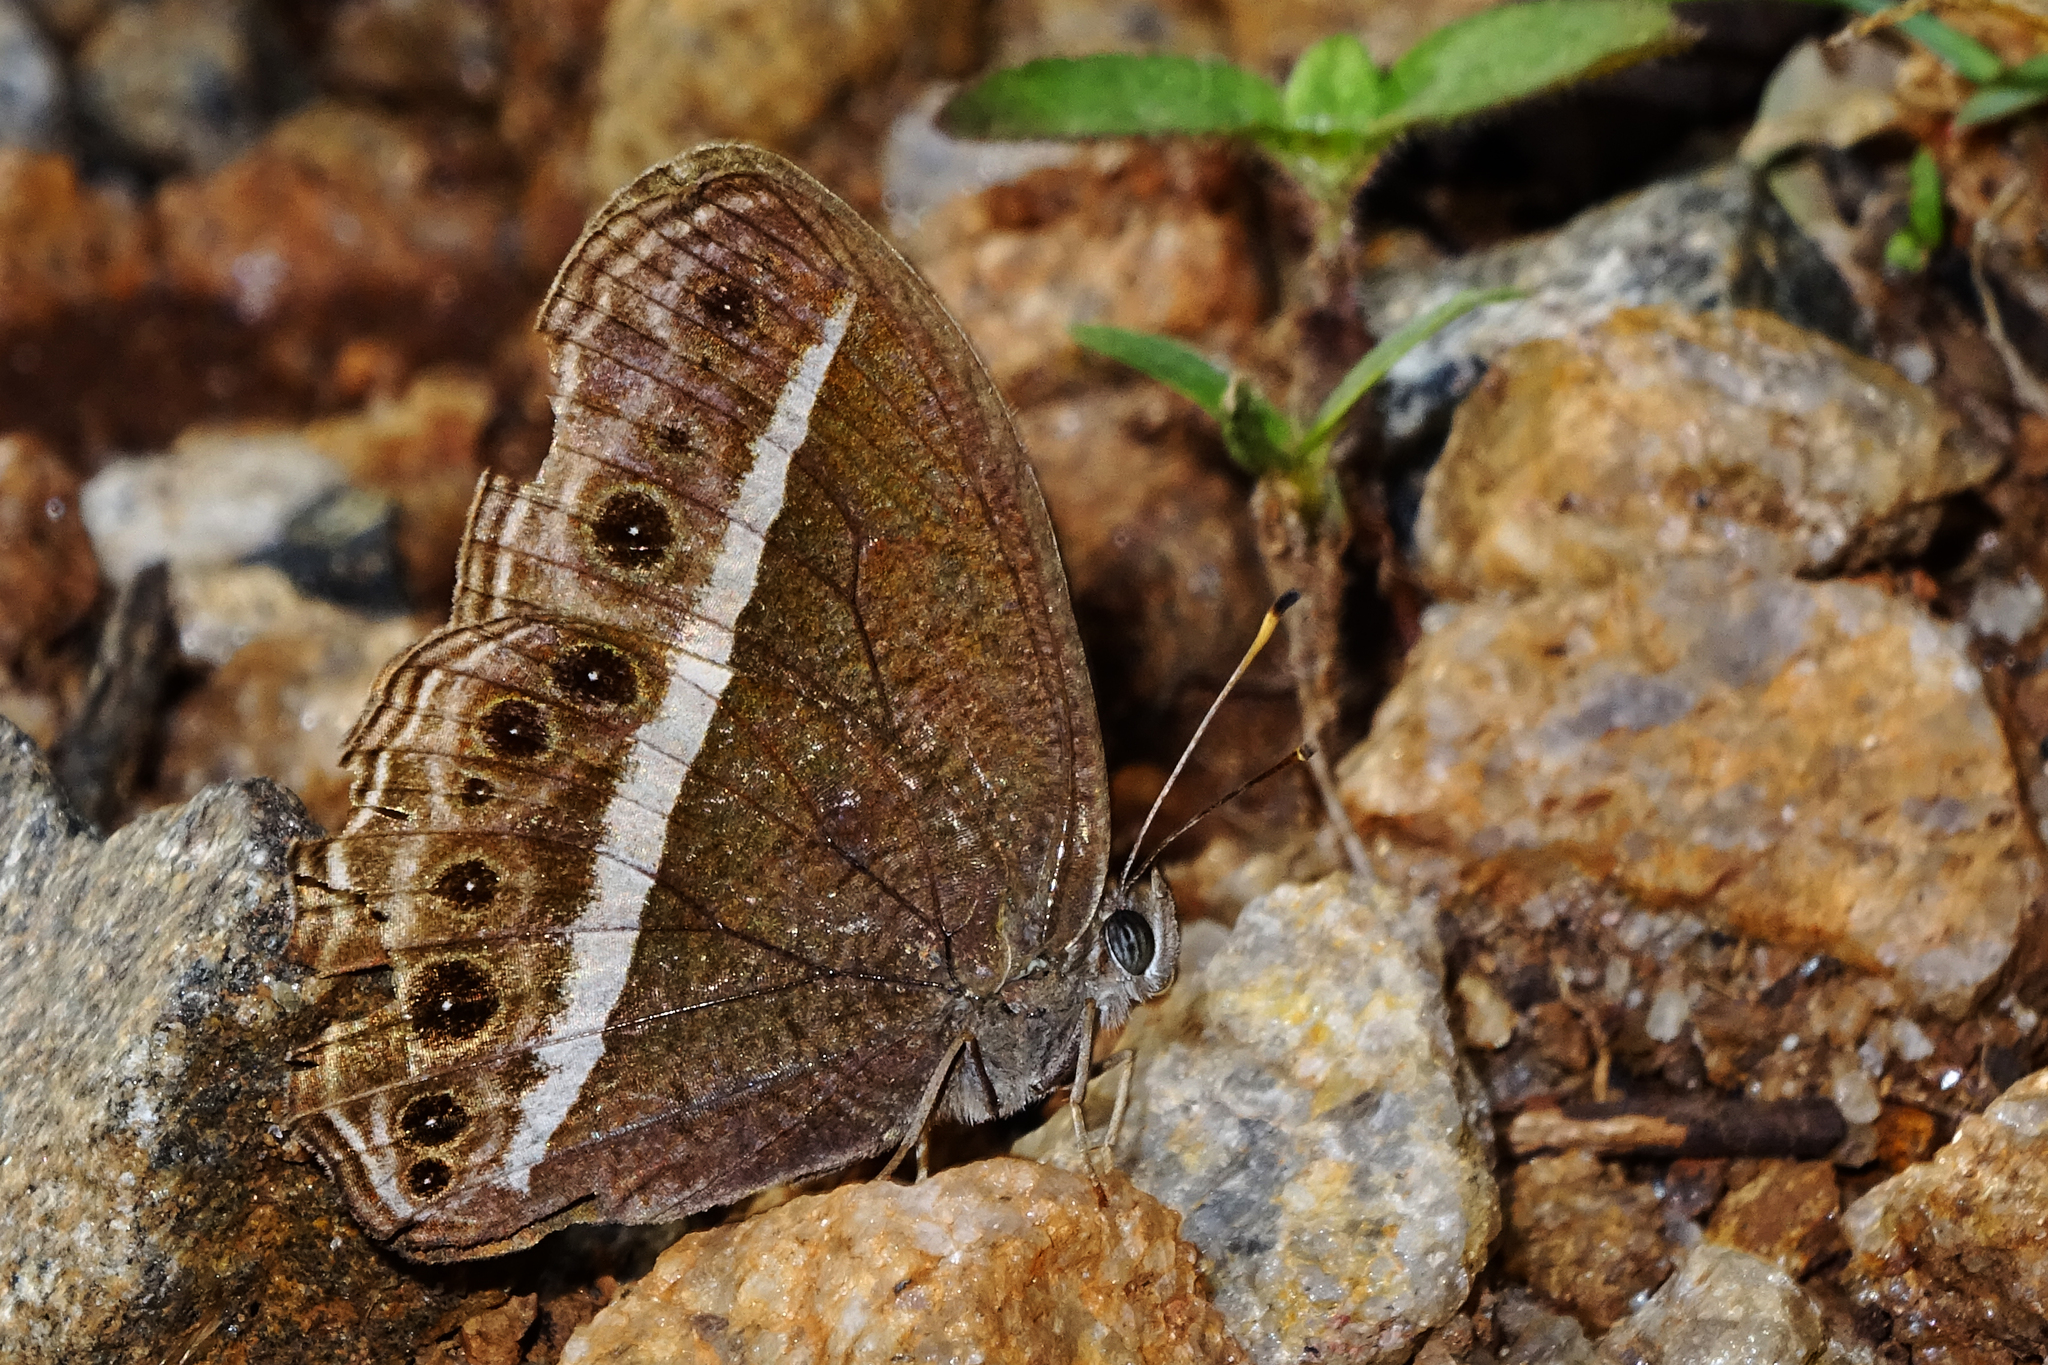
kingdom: Animalia
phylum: Arthropoda
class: Insecta
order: Lepidoptera
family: Nymphalidae
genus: Mycalesis
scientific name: Mycalesis Telinga spec
